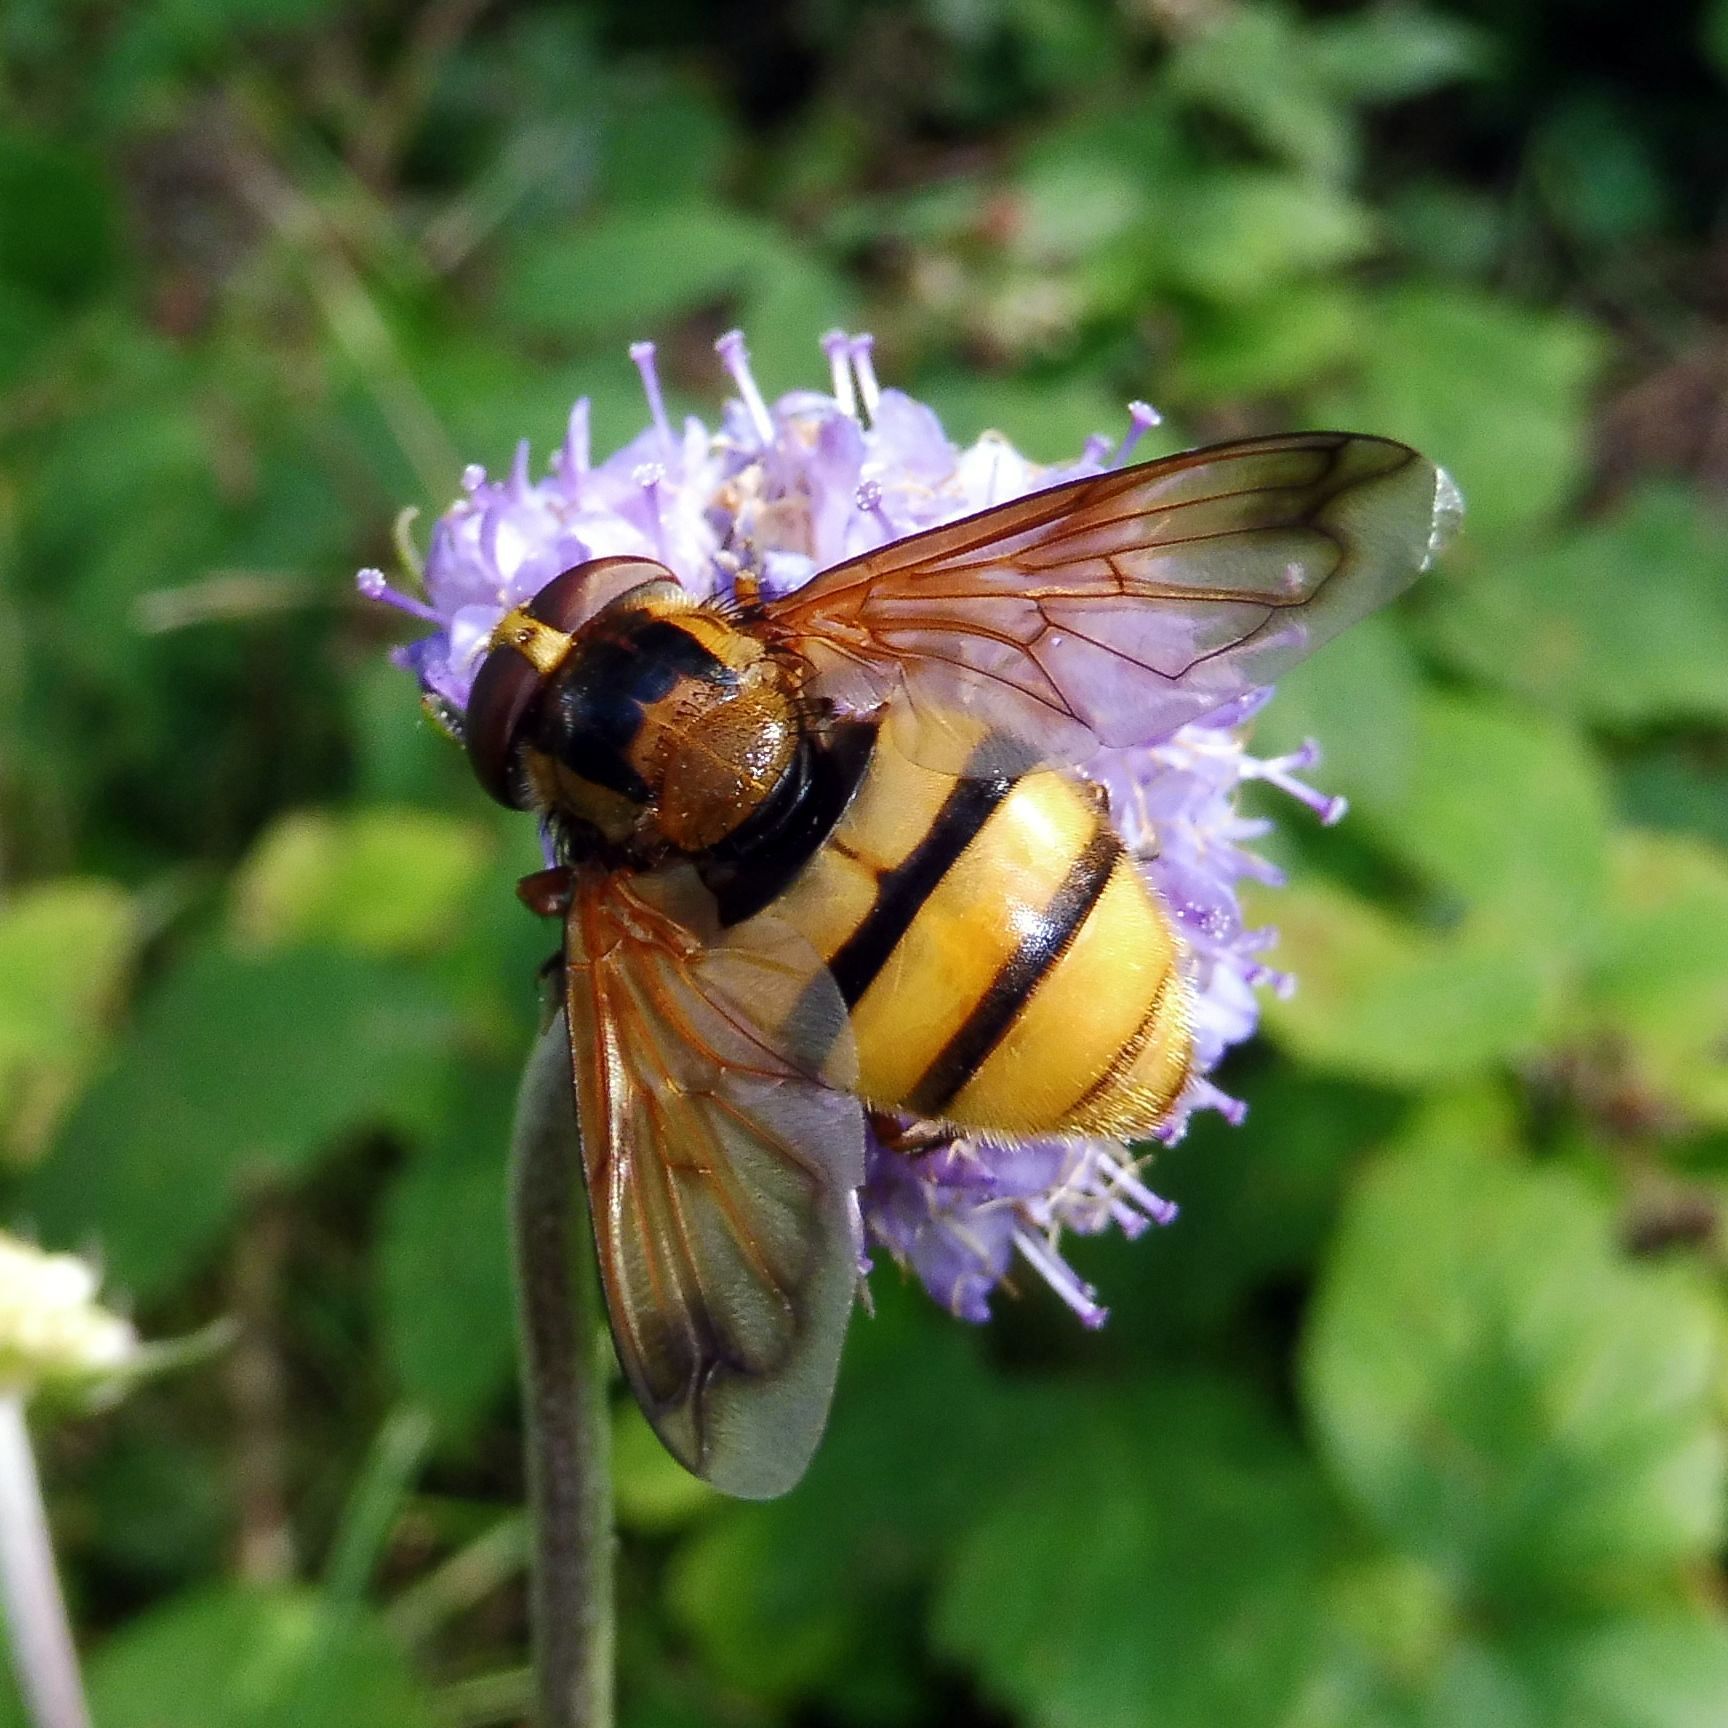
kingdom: Animalia
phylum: Arthropoda
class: Insecta
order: Diptera
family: Syrphidae
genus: Volucella
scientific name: Volucella inanis
